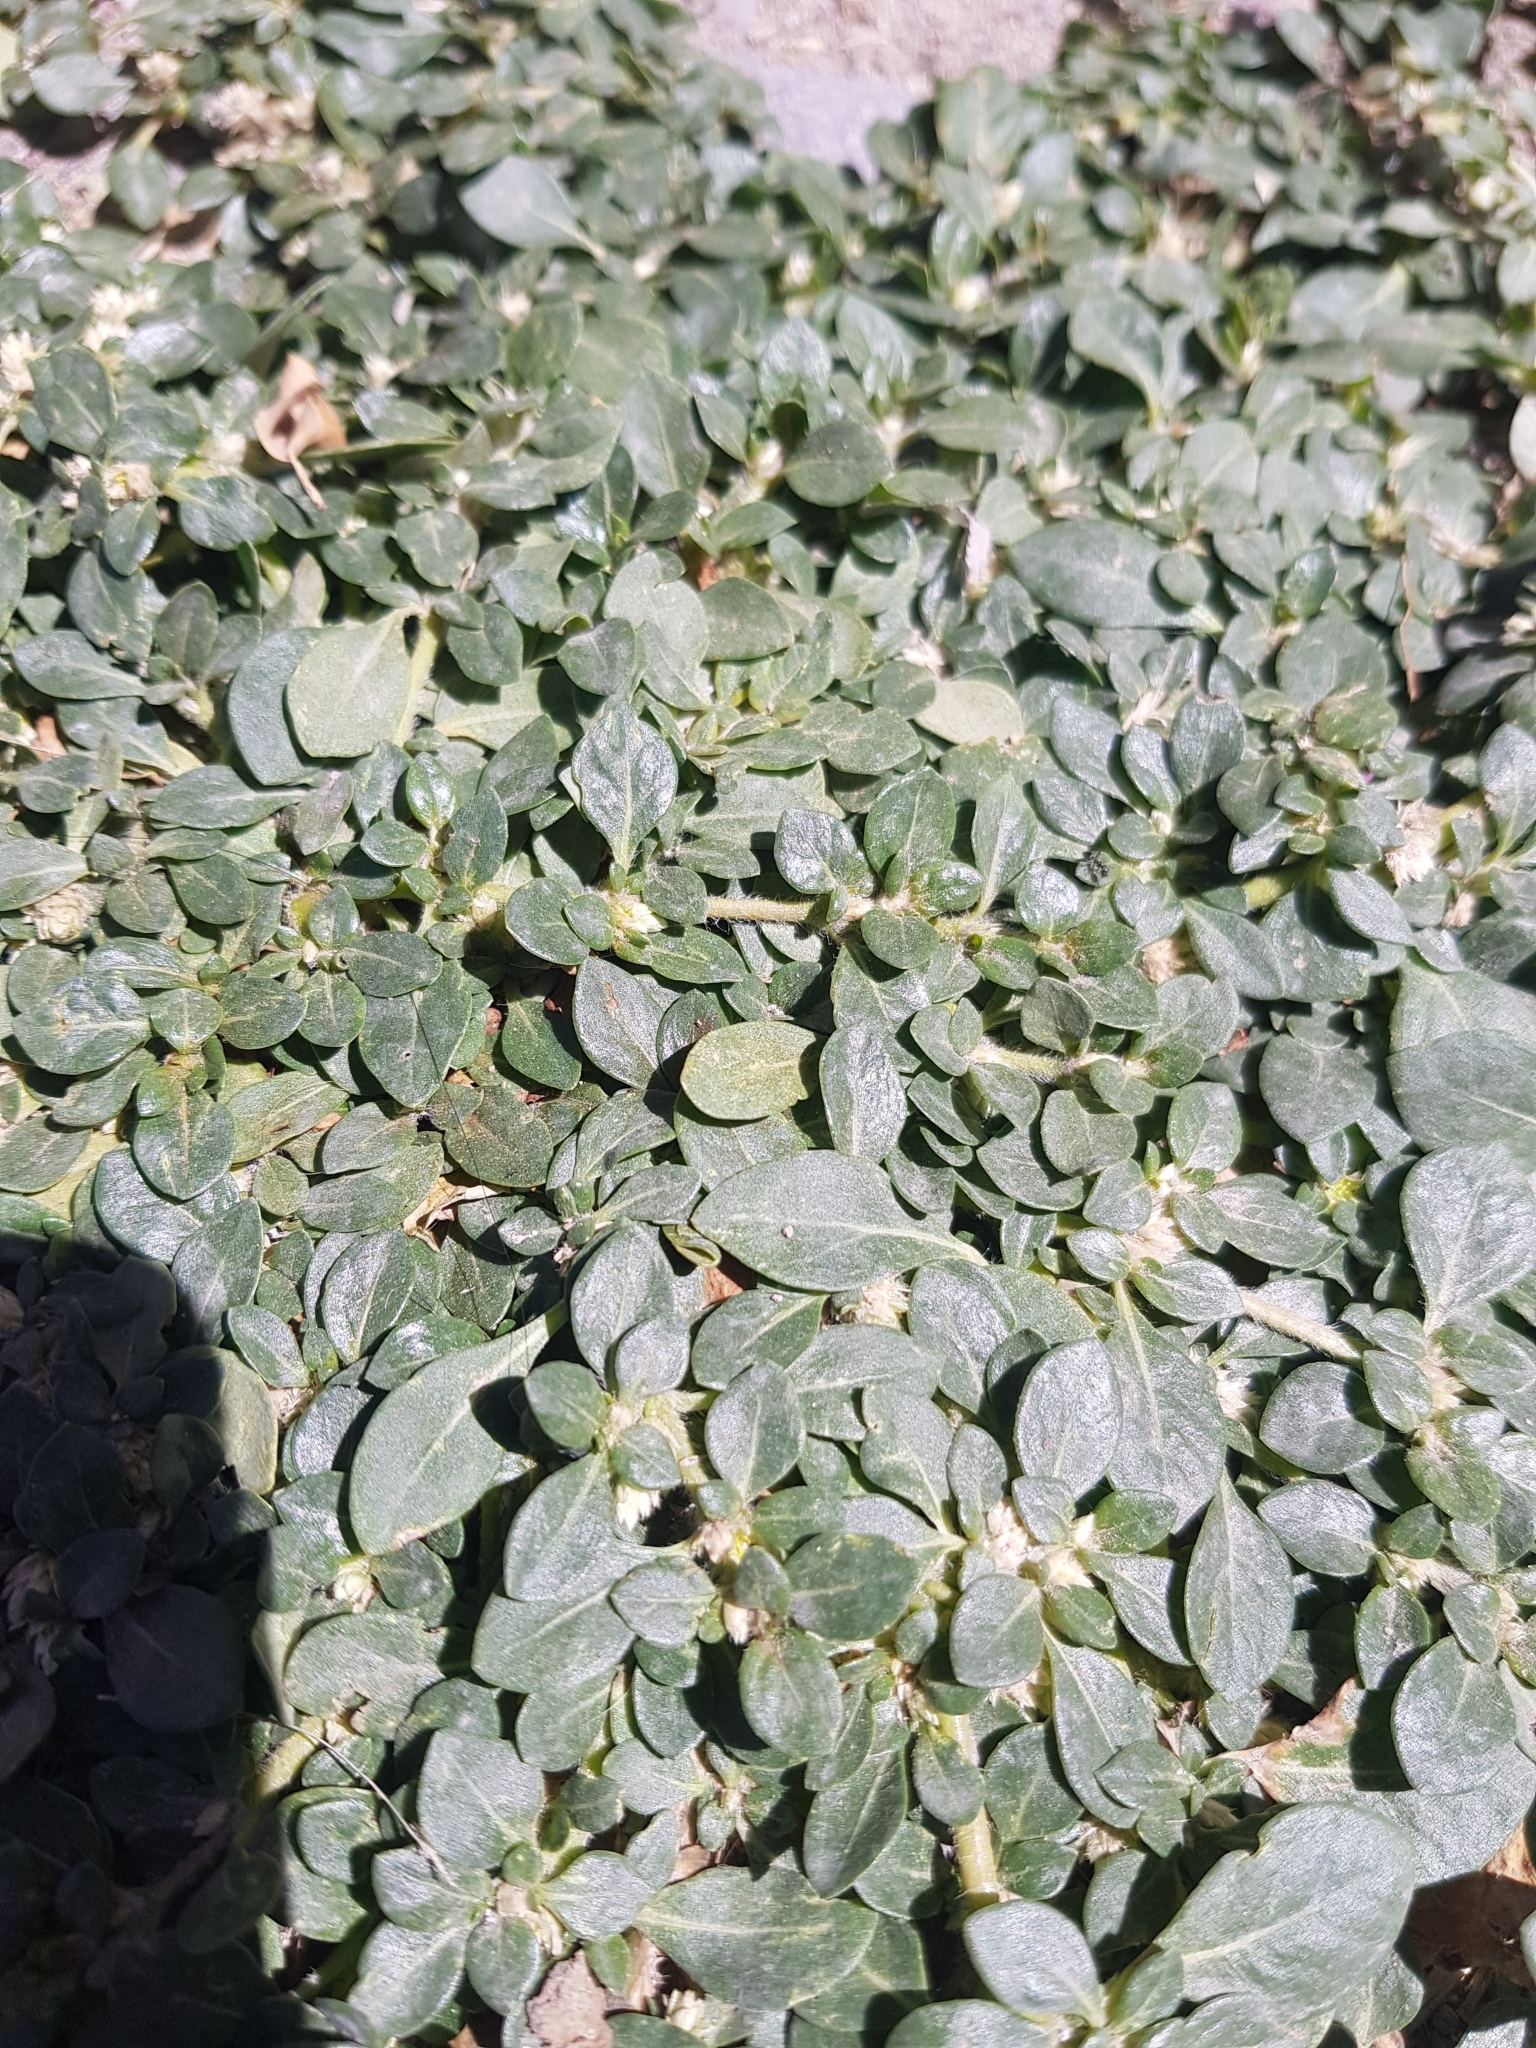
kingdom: Plantae
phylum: Tracheophyta
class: Magnoliopsida
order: Caryophyllales
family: Amaranthaceae
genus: Alternanthera
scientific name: Alternanthera caracasana
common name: Washerwoman
